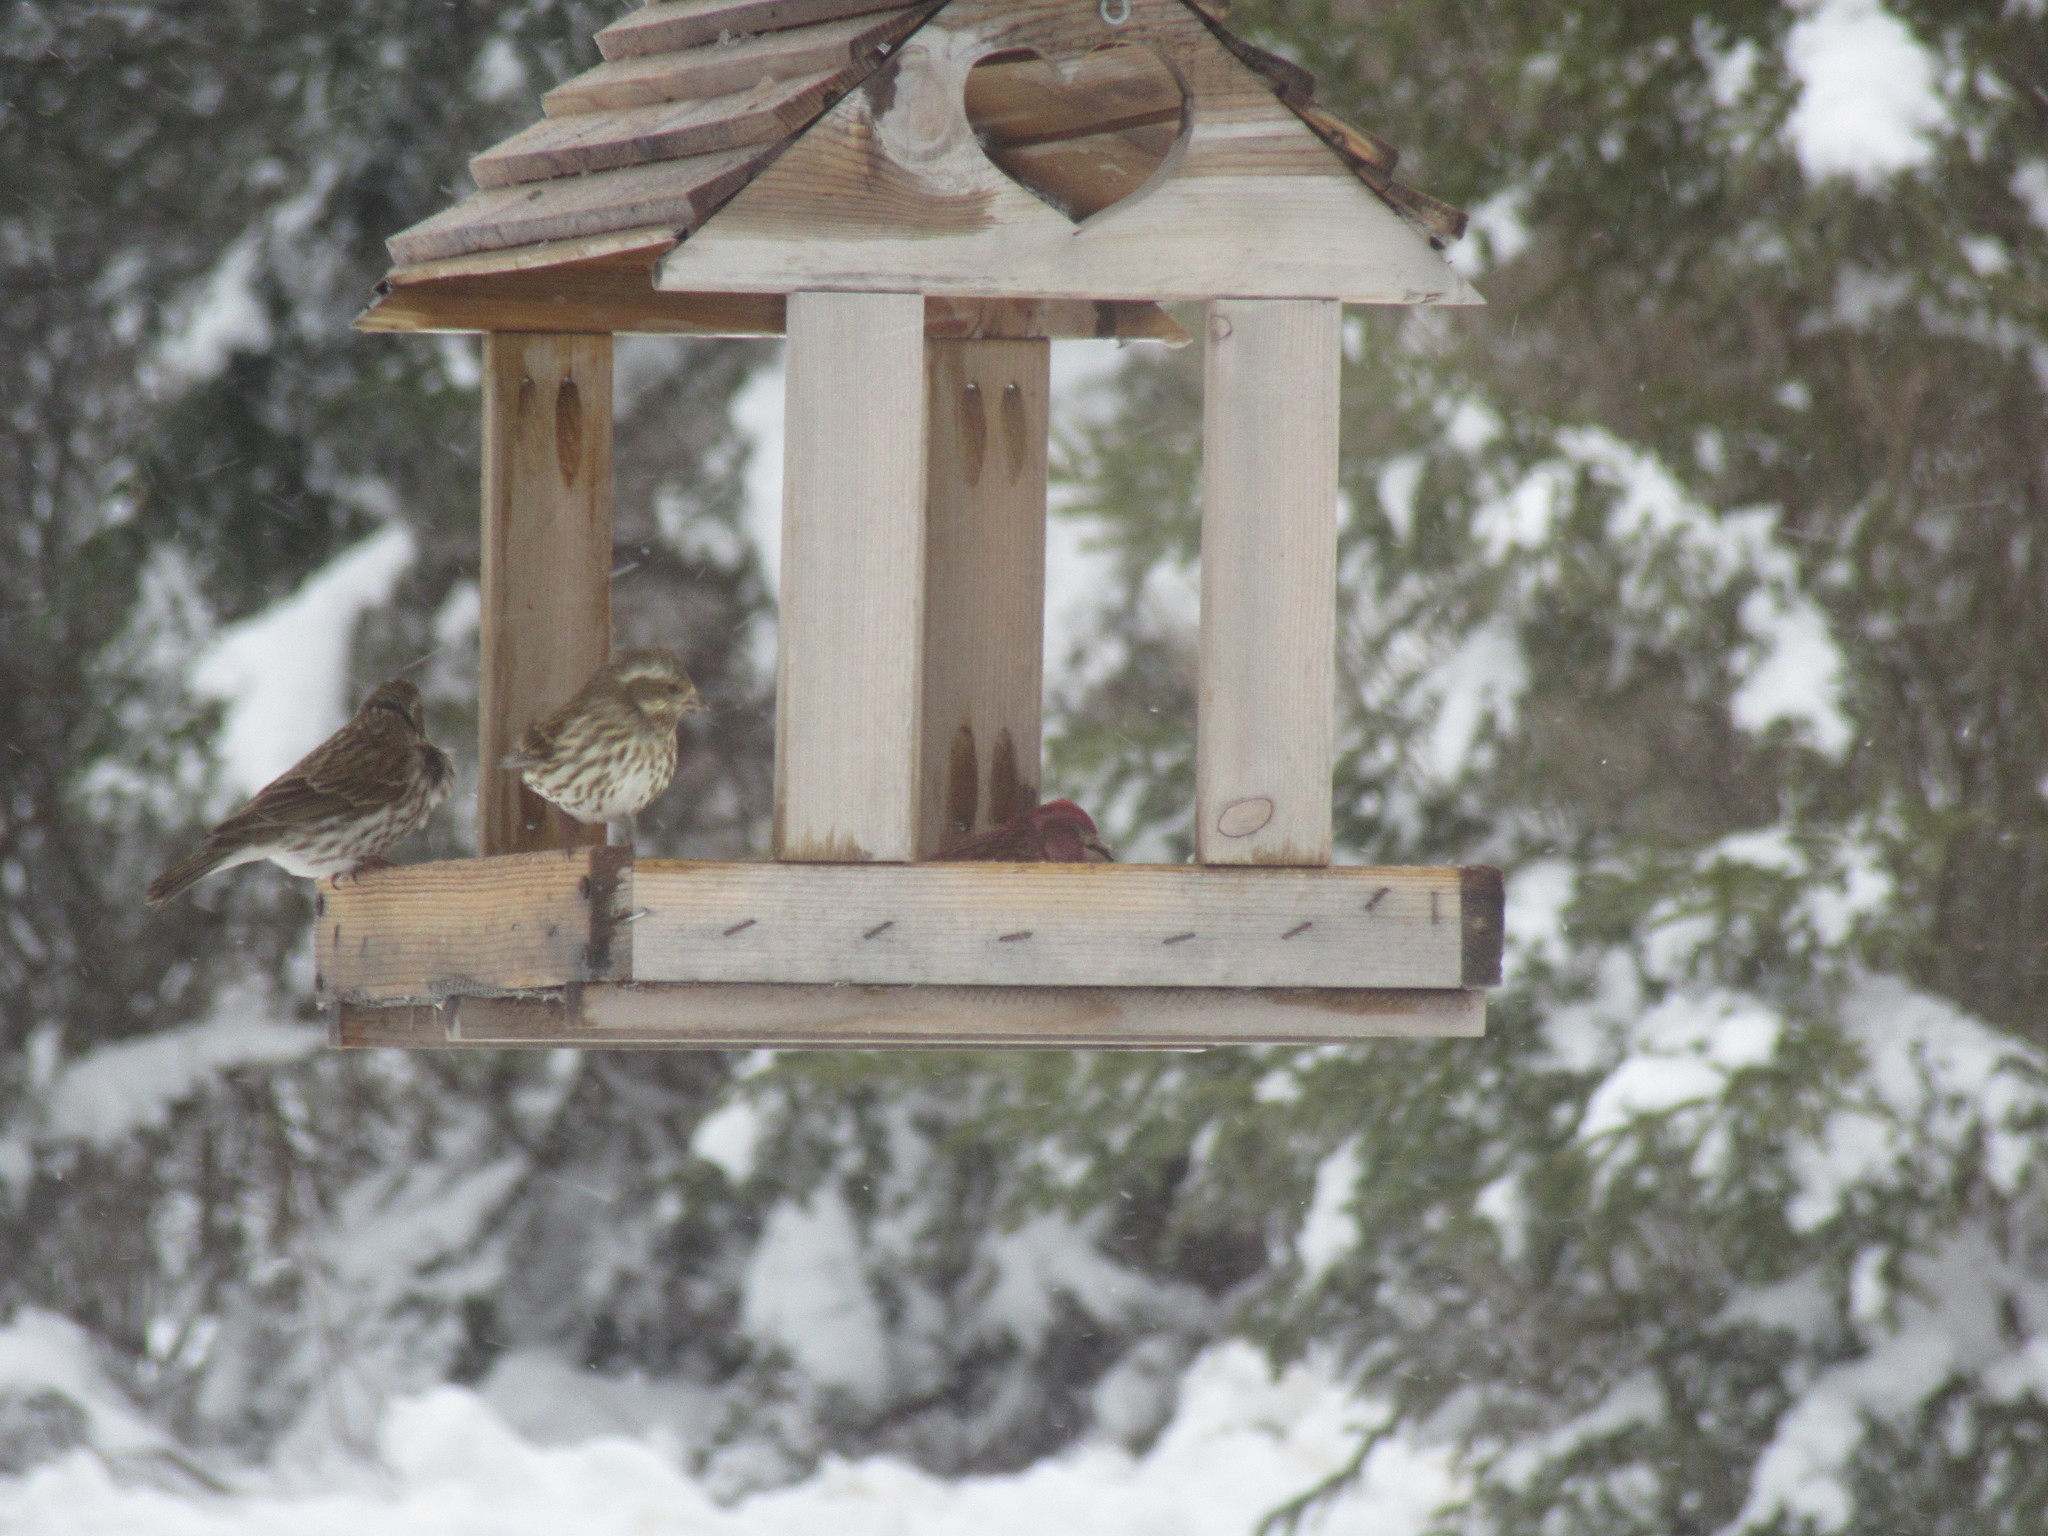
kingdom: Animalia
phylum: Chordata
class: Aves
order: Passeriformes
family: Fringillidae
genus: Haemorhous
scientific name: Haemorhous purpureus
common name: Purple finch
